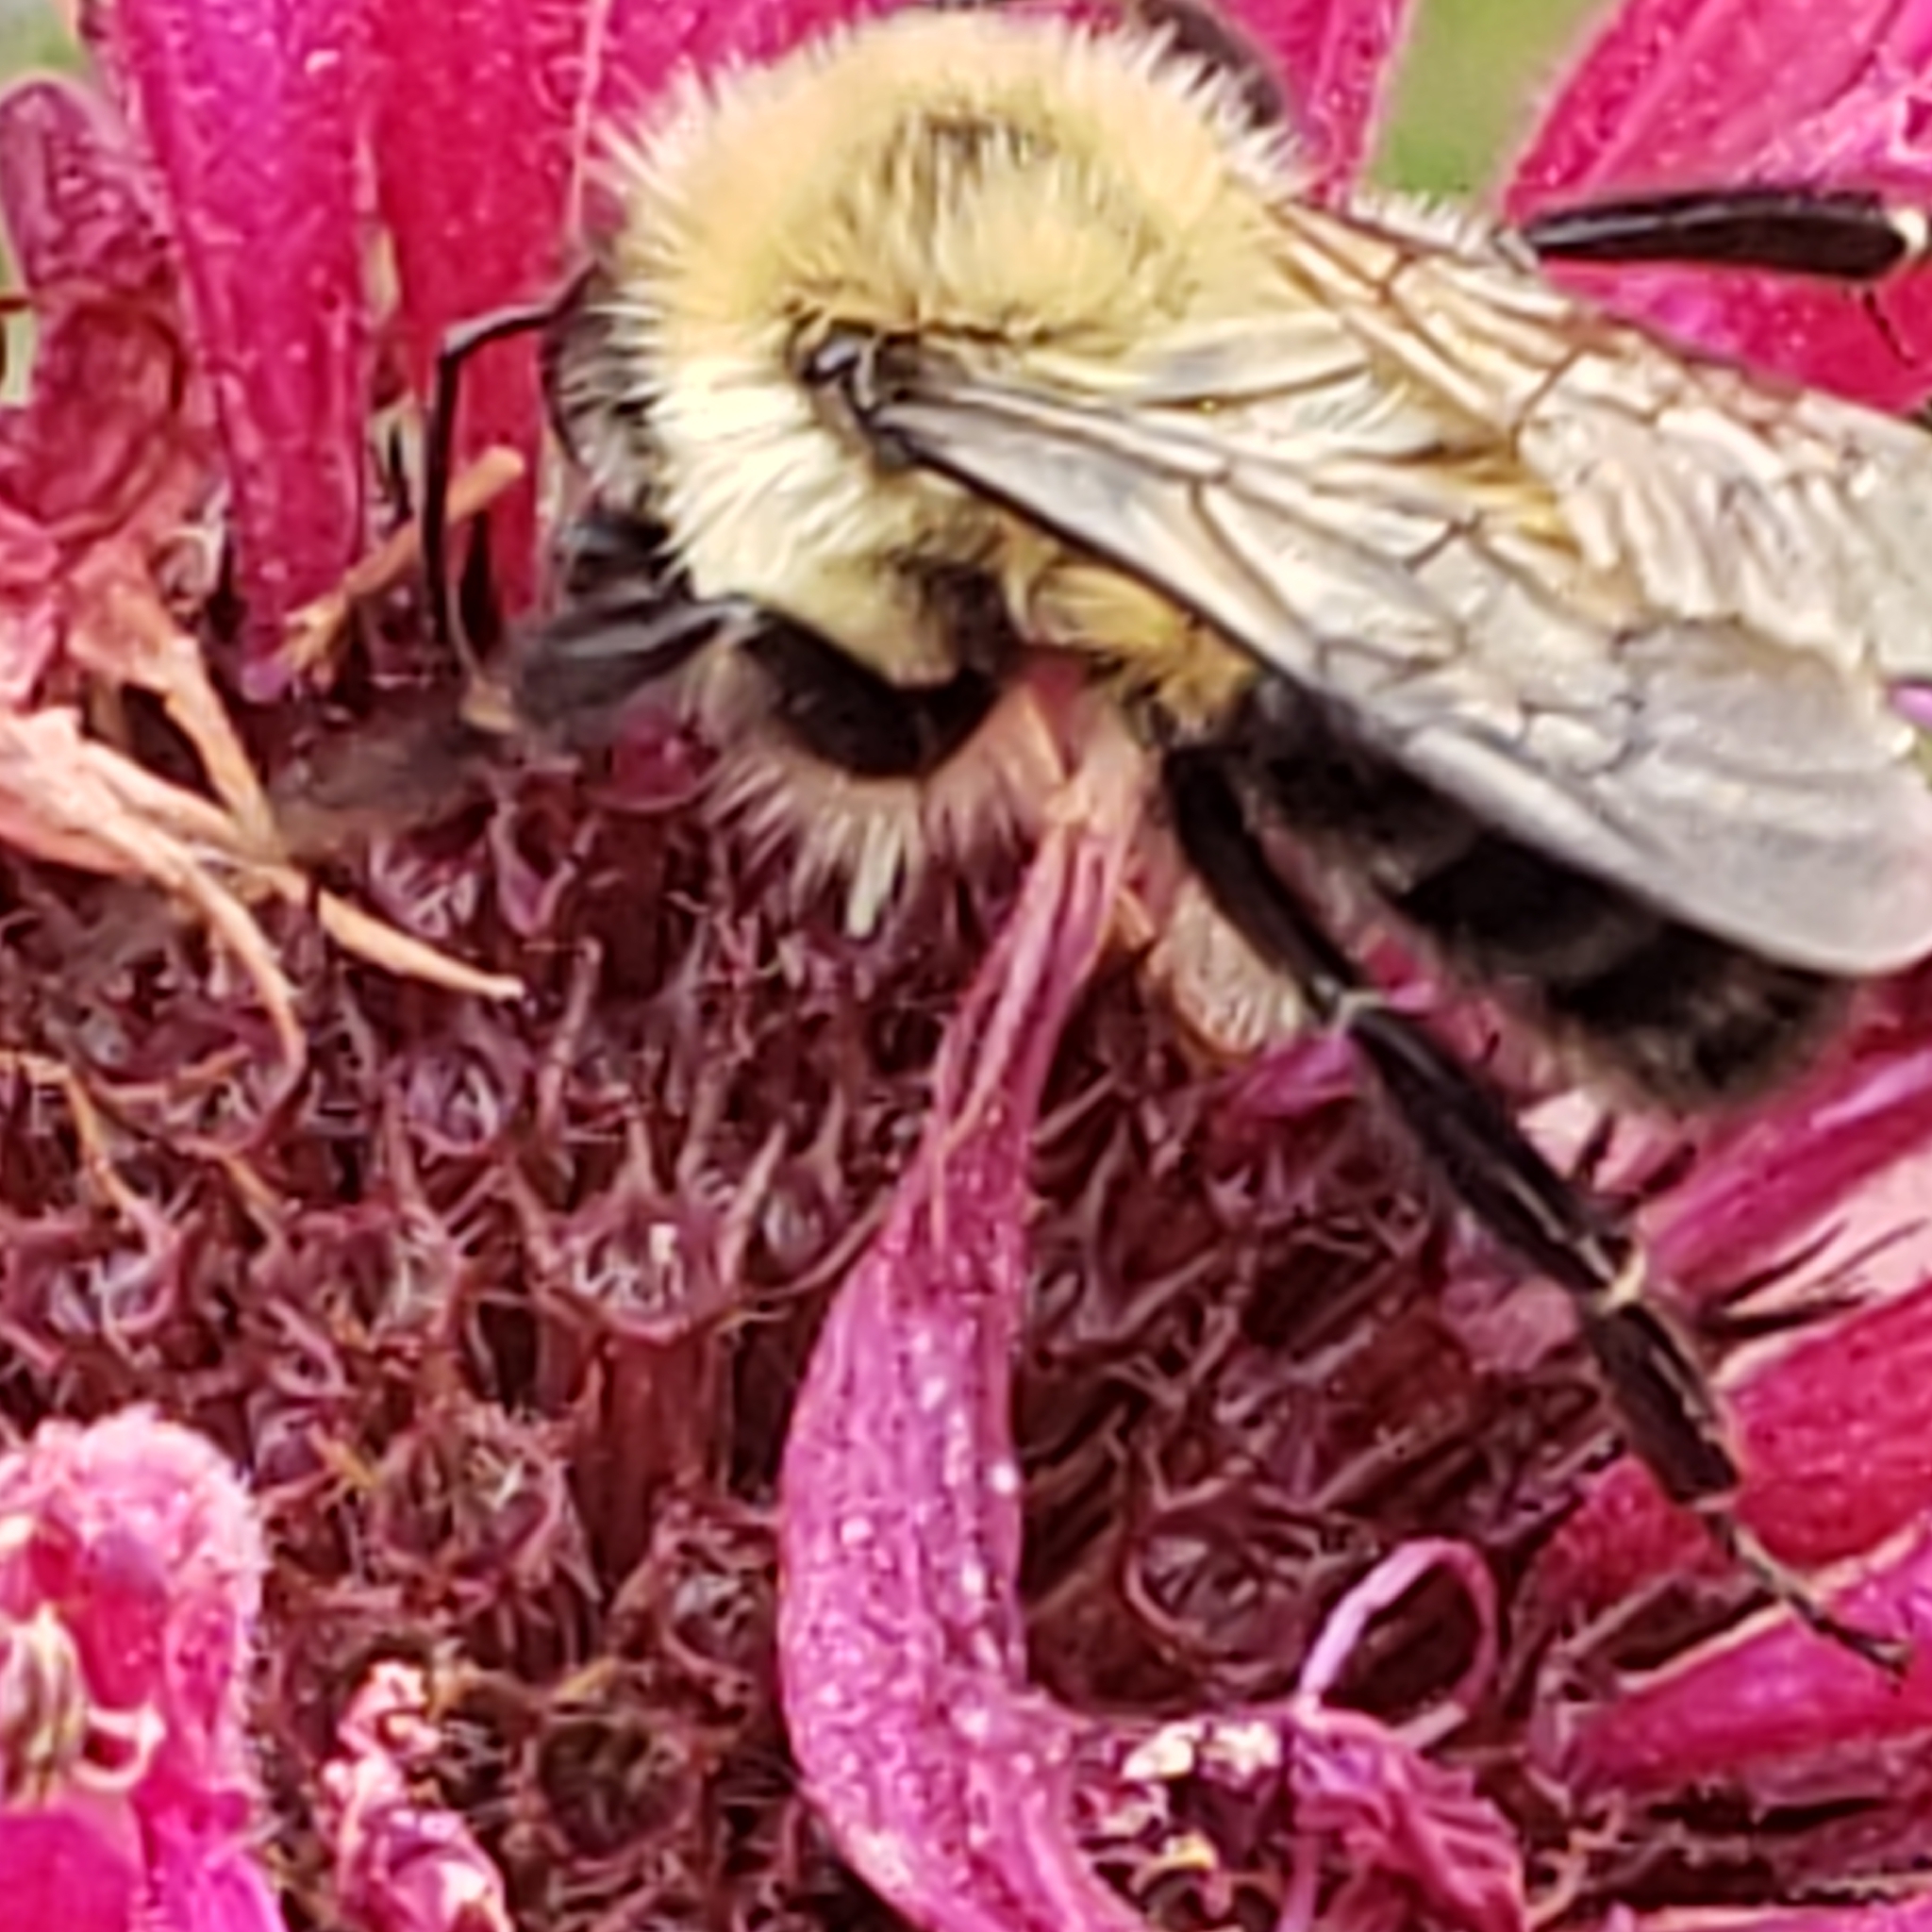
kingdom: Animalia
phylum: Arthropoda
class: Insecta
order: Hymenoptera
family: Apidae
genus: Bombus
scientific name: Bombus bimaculatus
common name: Two-spotted bumble bee
